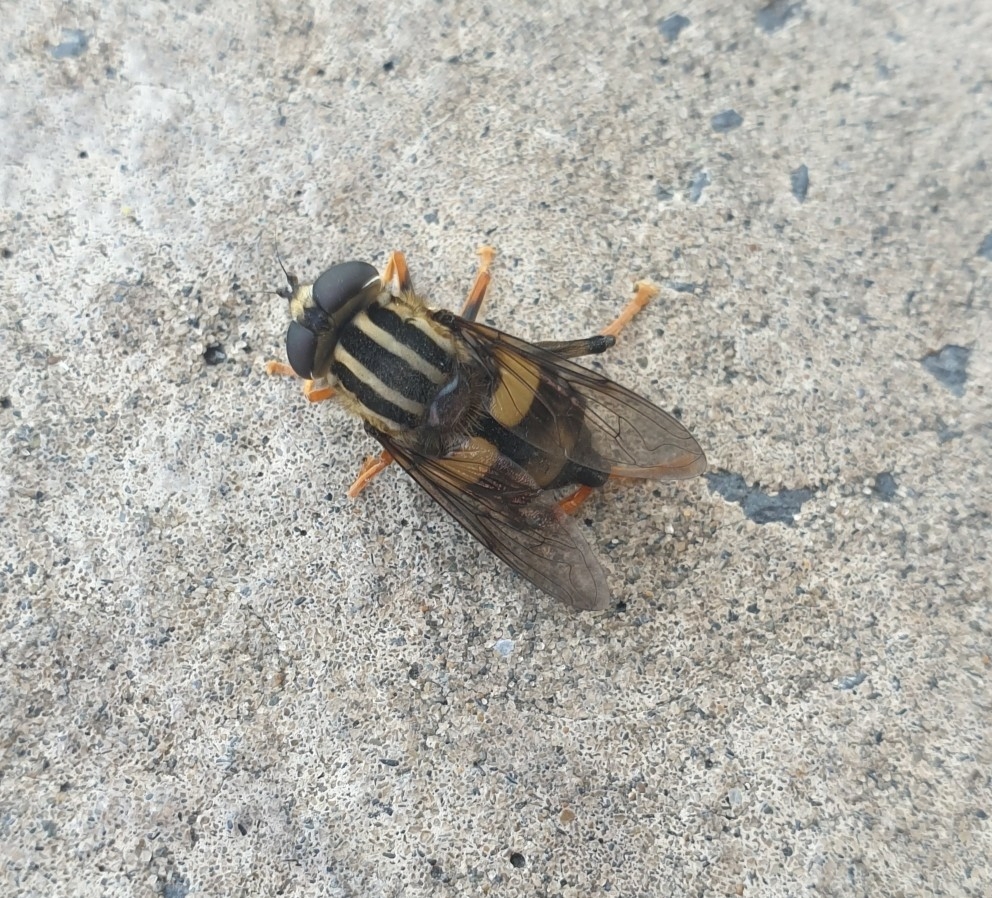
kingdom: Animalia
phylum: Arthropoda
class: Insecta
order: Diptera
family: Syrphidae
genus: Helophilus
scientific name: Helophilus seelandicus
